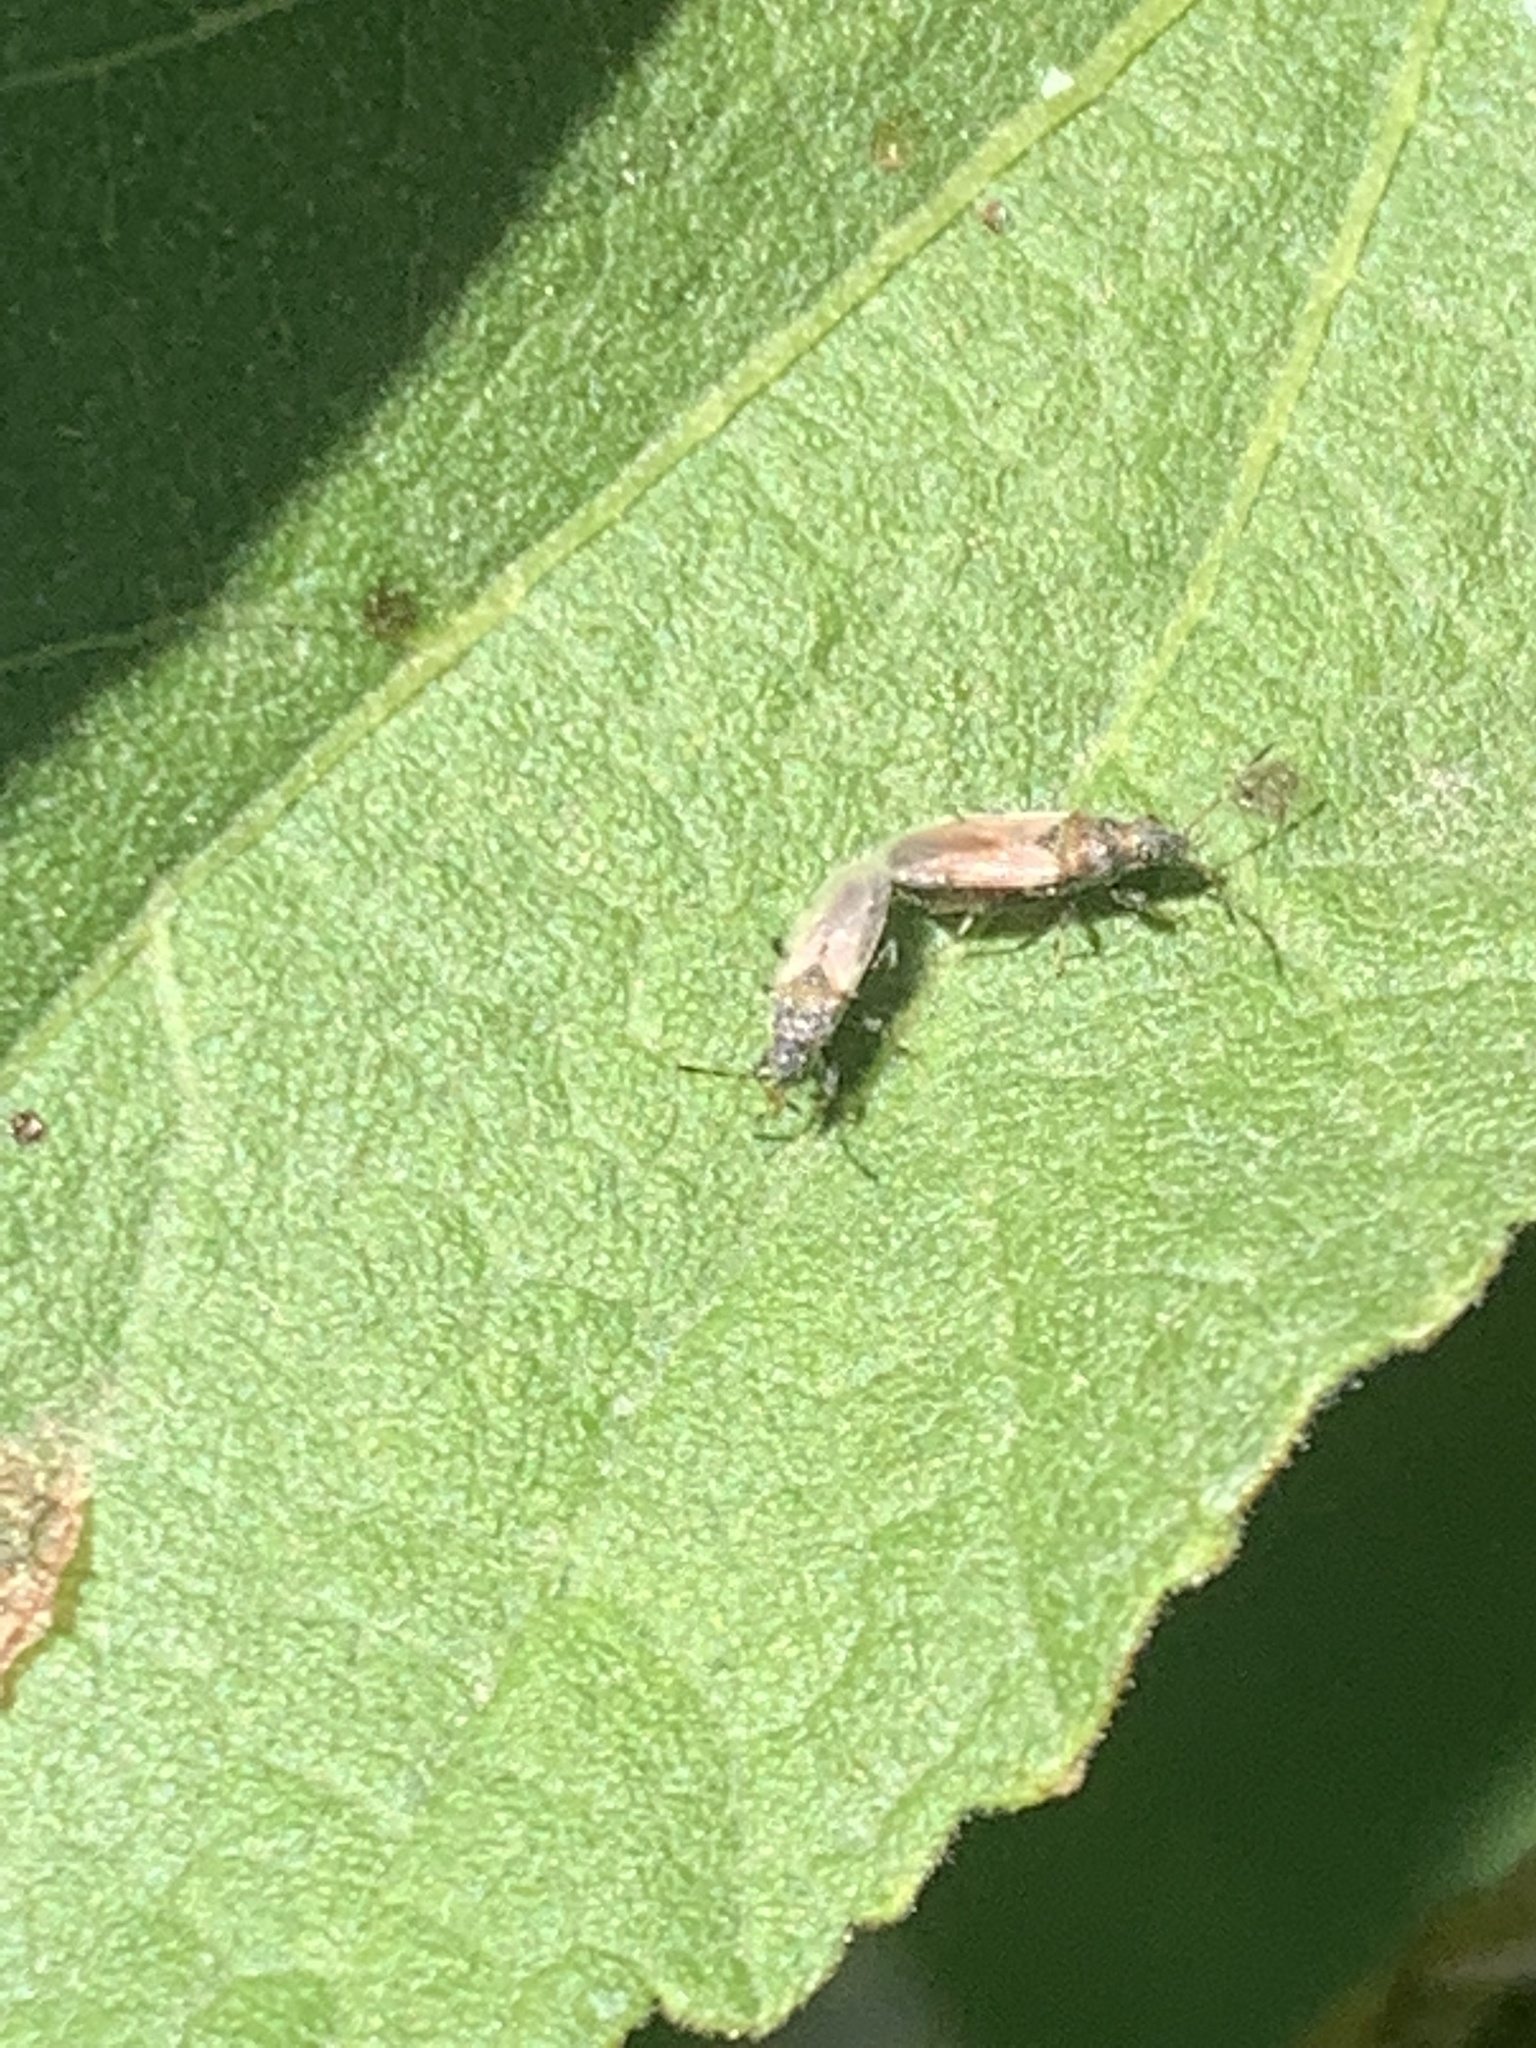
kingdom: Animalia
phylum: Arthropoda
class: Insecta
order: Hemiptera
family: Oxycarenidae
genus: Oxycarenus
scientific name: Oxycarenus hyalinipennis
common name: Cotton seed bug
